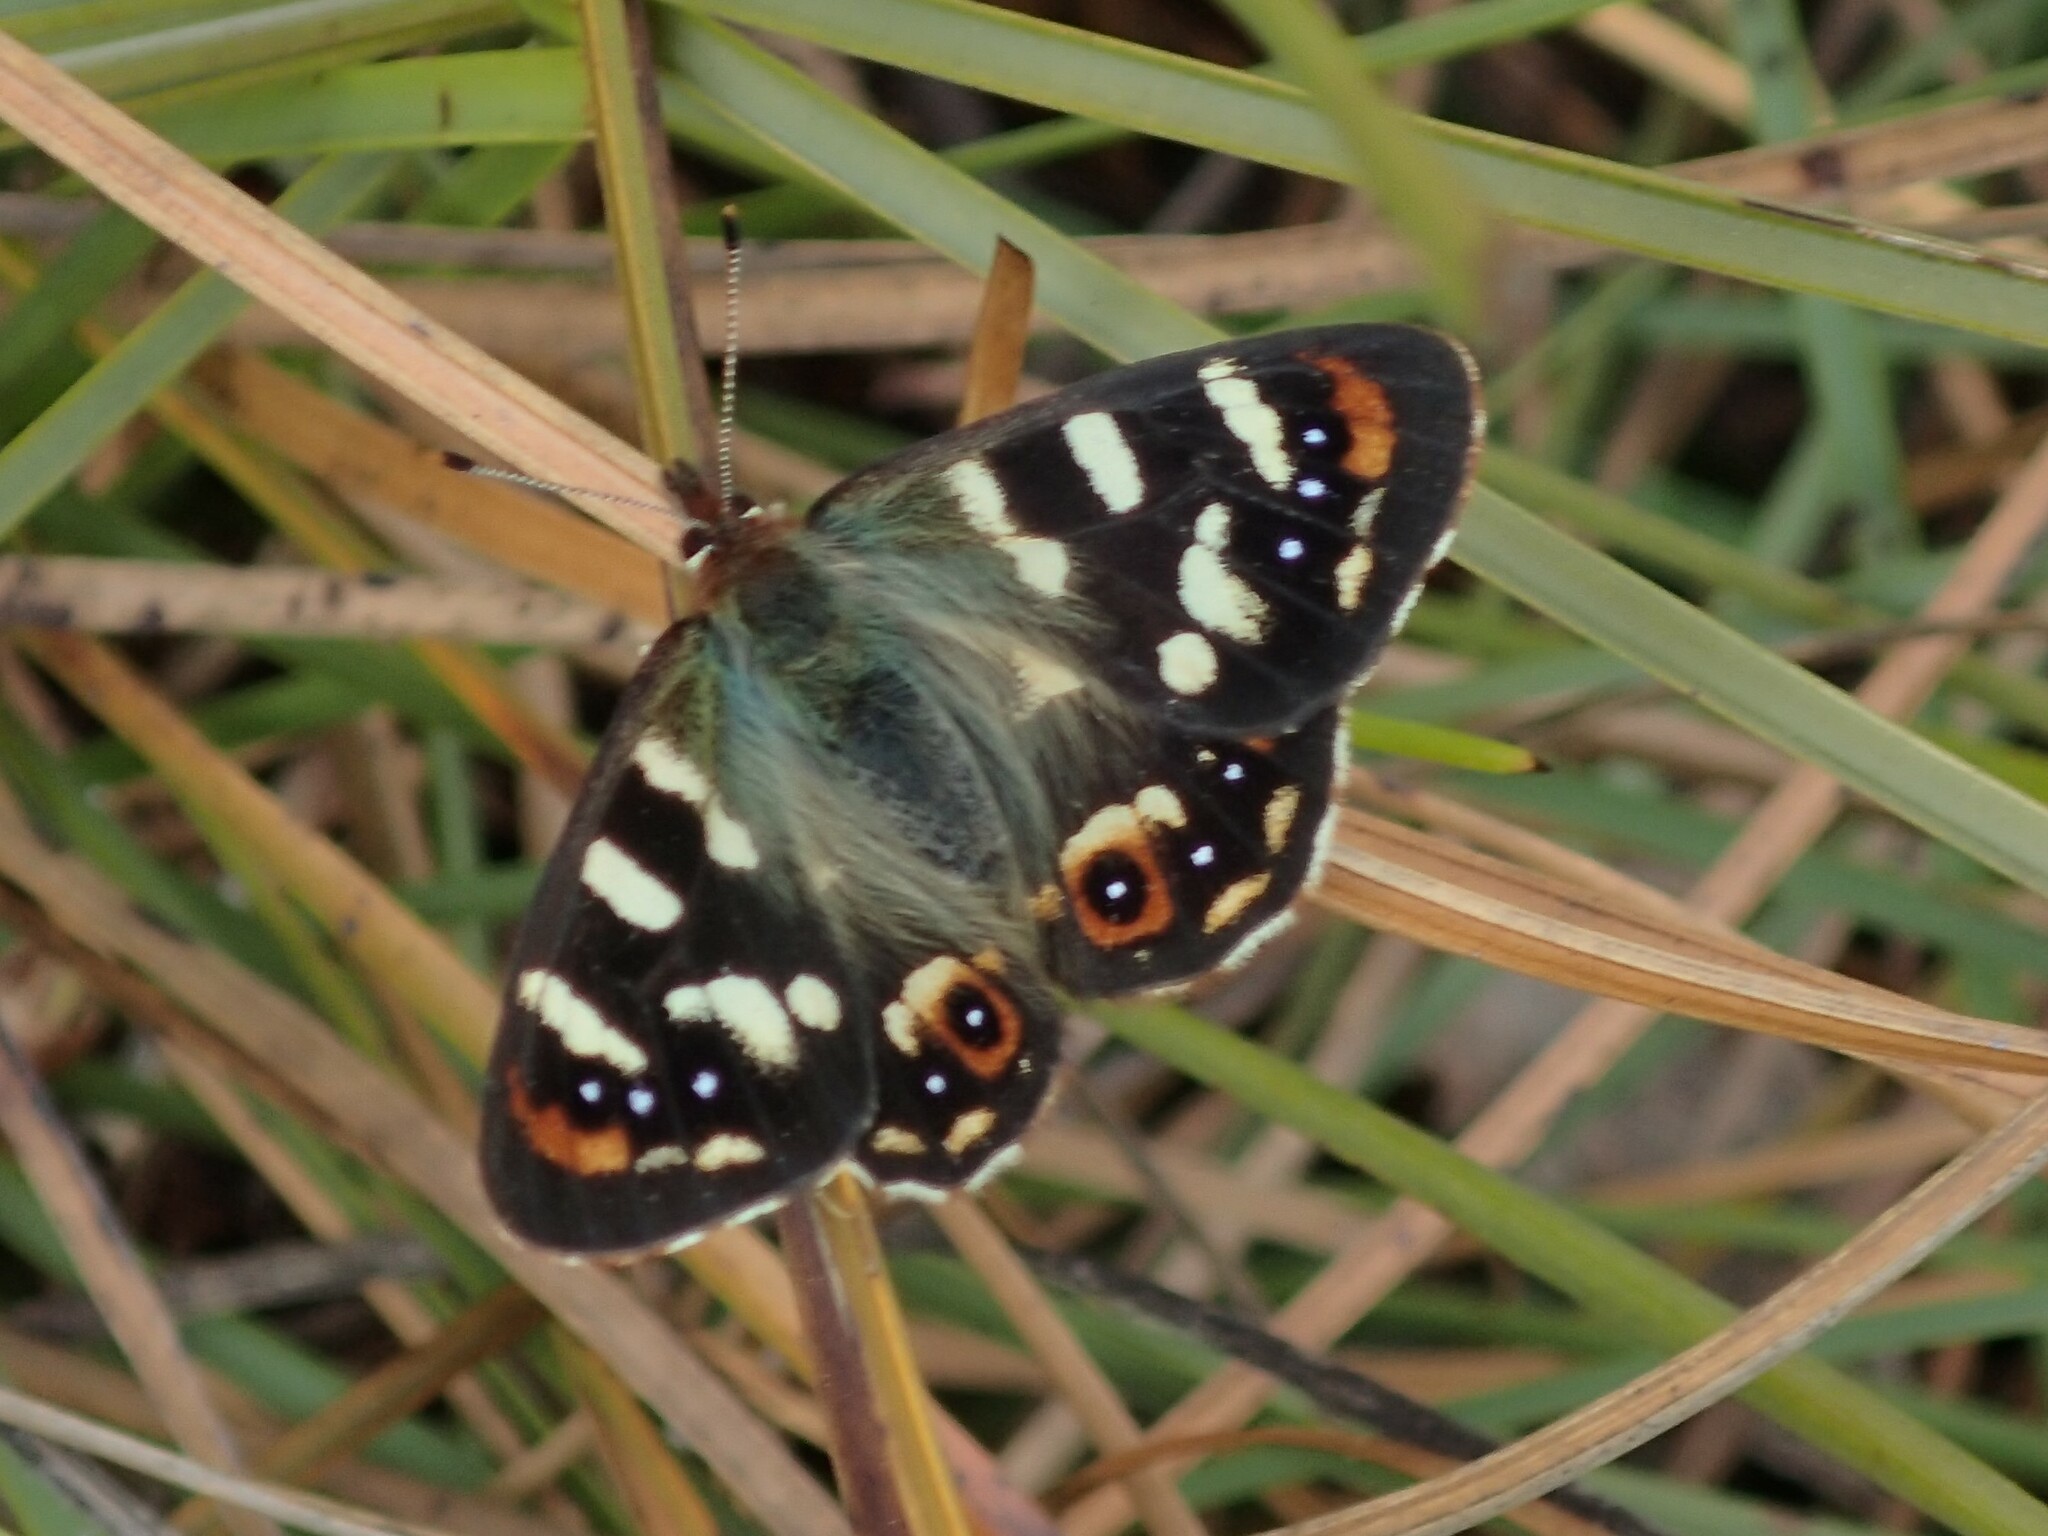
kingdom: Animalia
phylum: Arthropoda
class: Insecta
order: Lepidoptera
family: Nymphalidae
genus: Argynnina
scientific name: Argynnina hobartia
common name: Hobart brown
